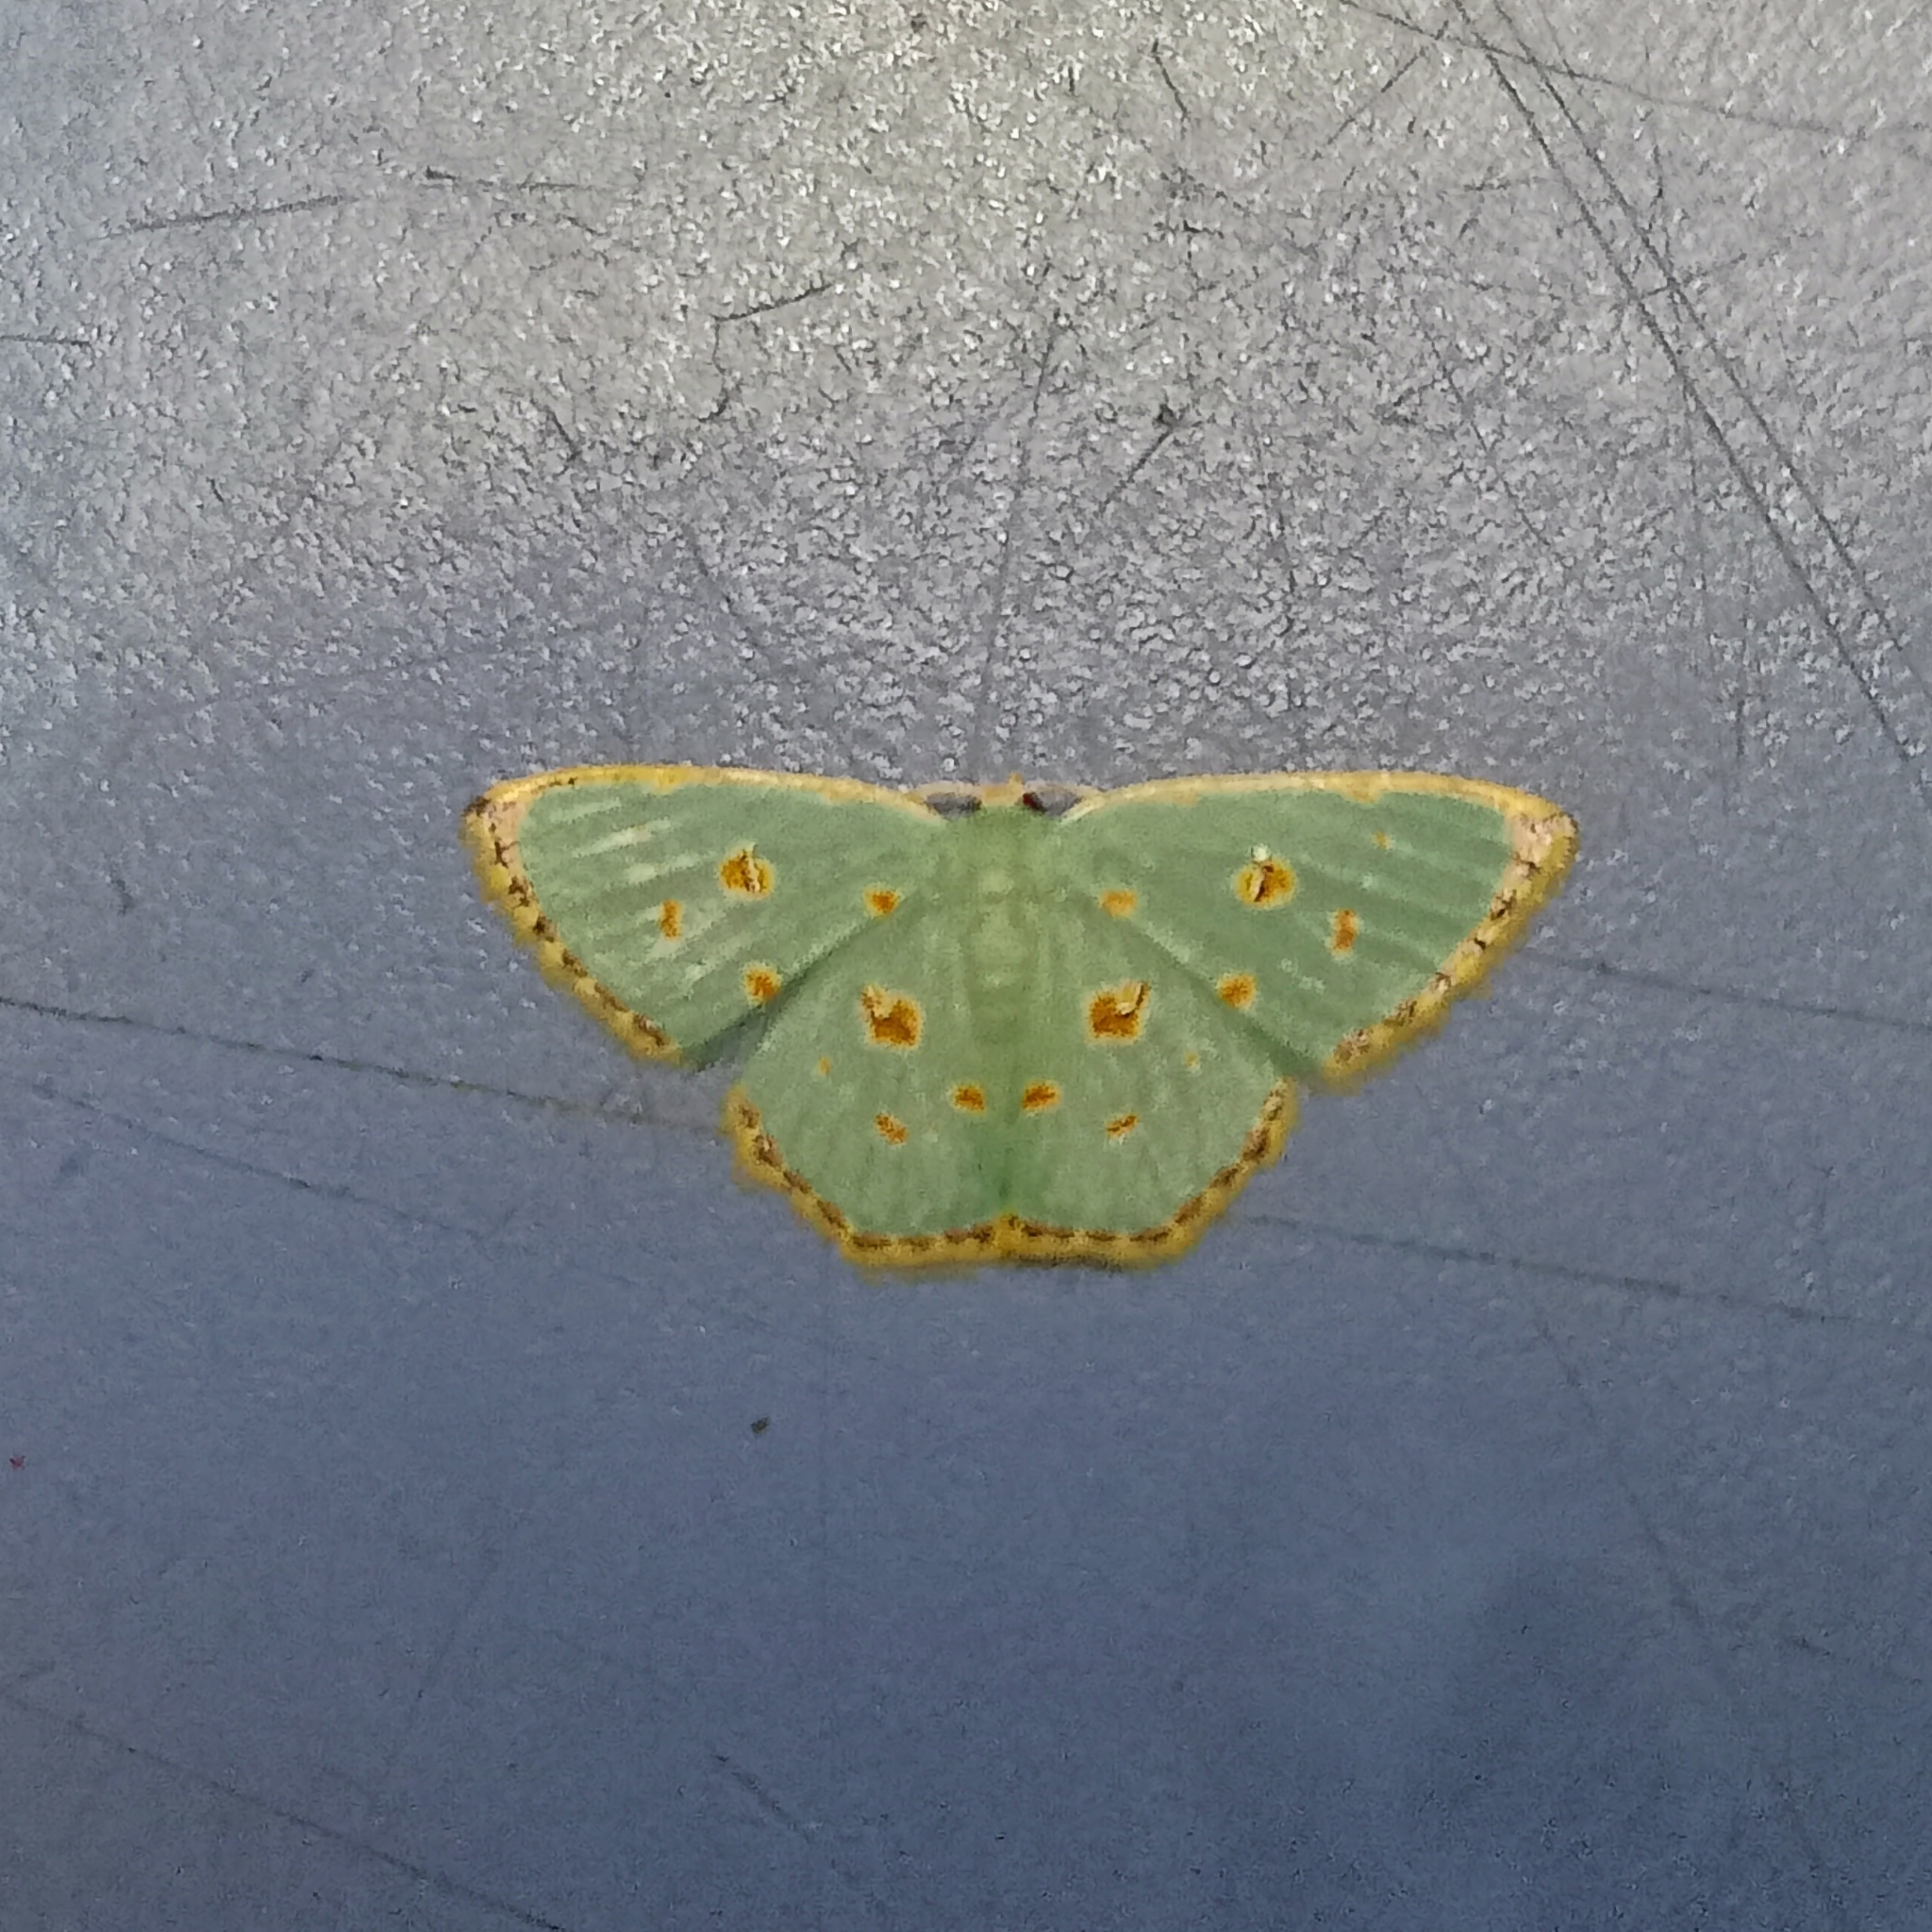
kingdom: Animalia
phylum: Arthropoda
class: Insecta
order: Lepidoptera
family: Geometridae
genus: Comostola
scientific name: Comostola laesaria
